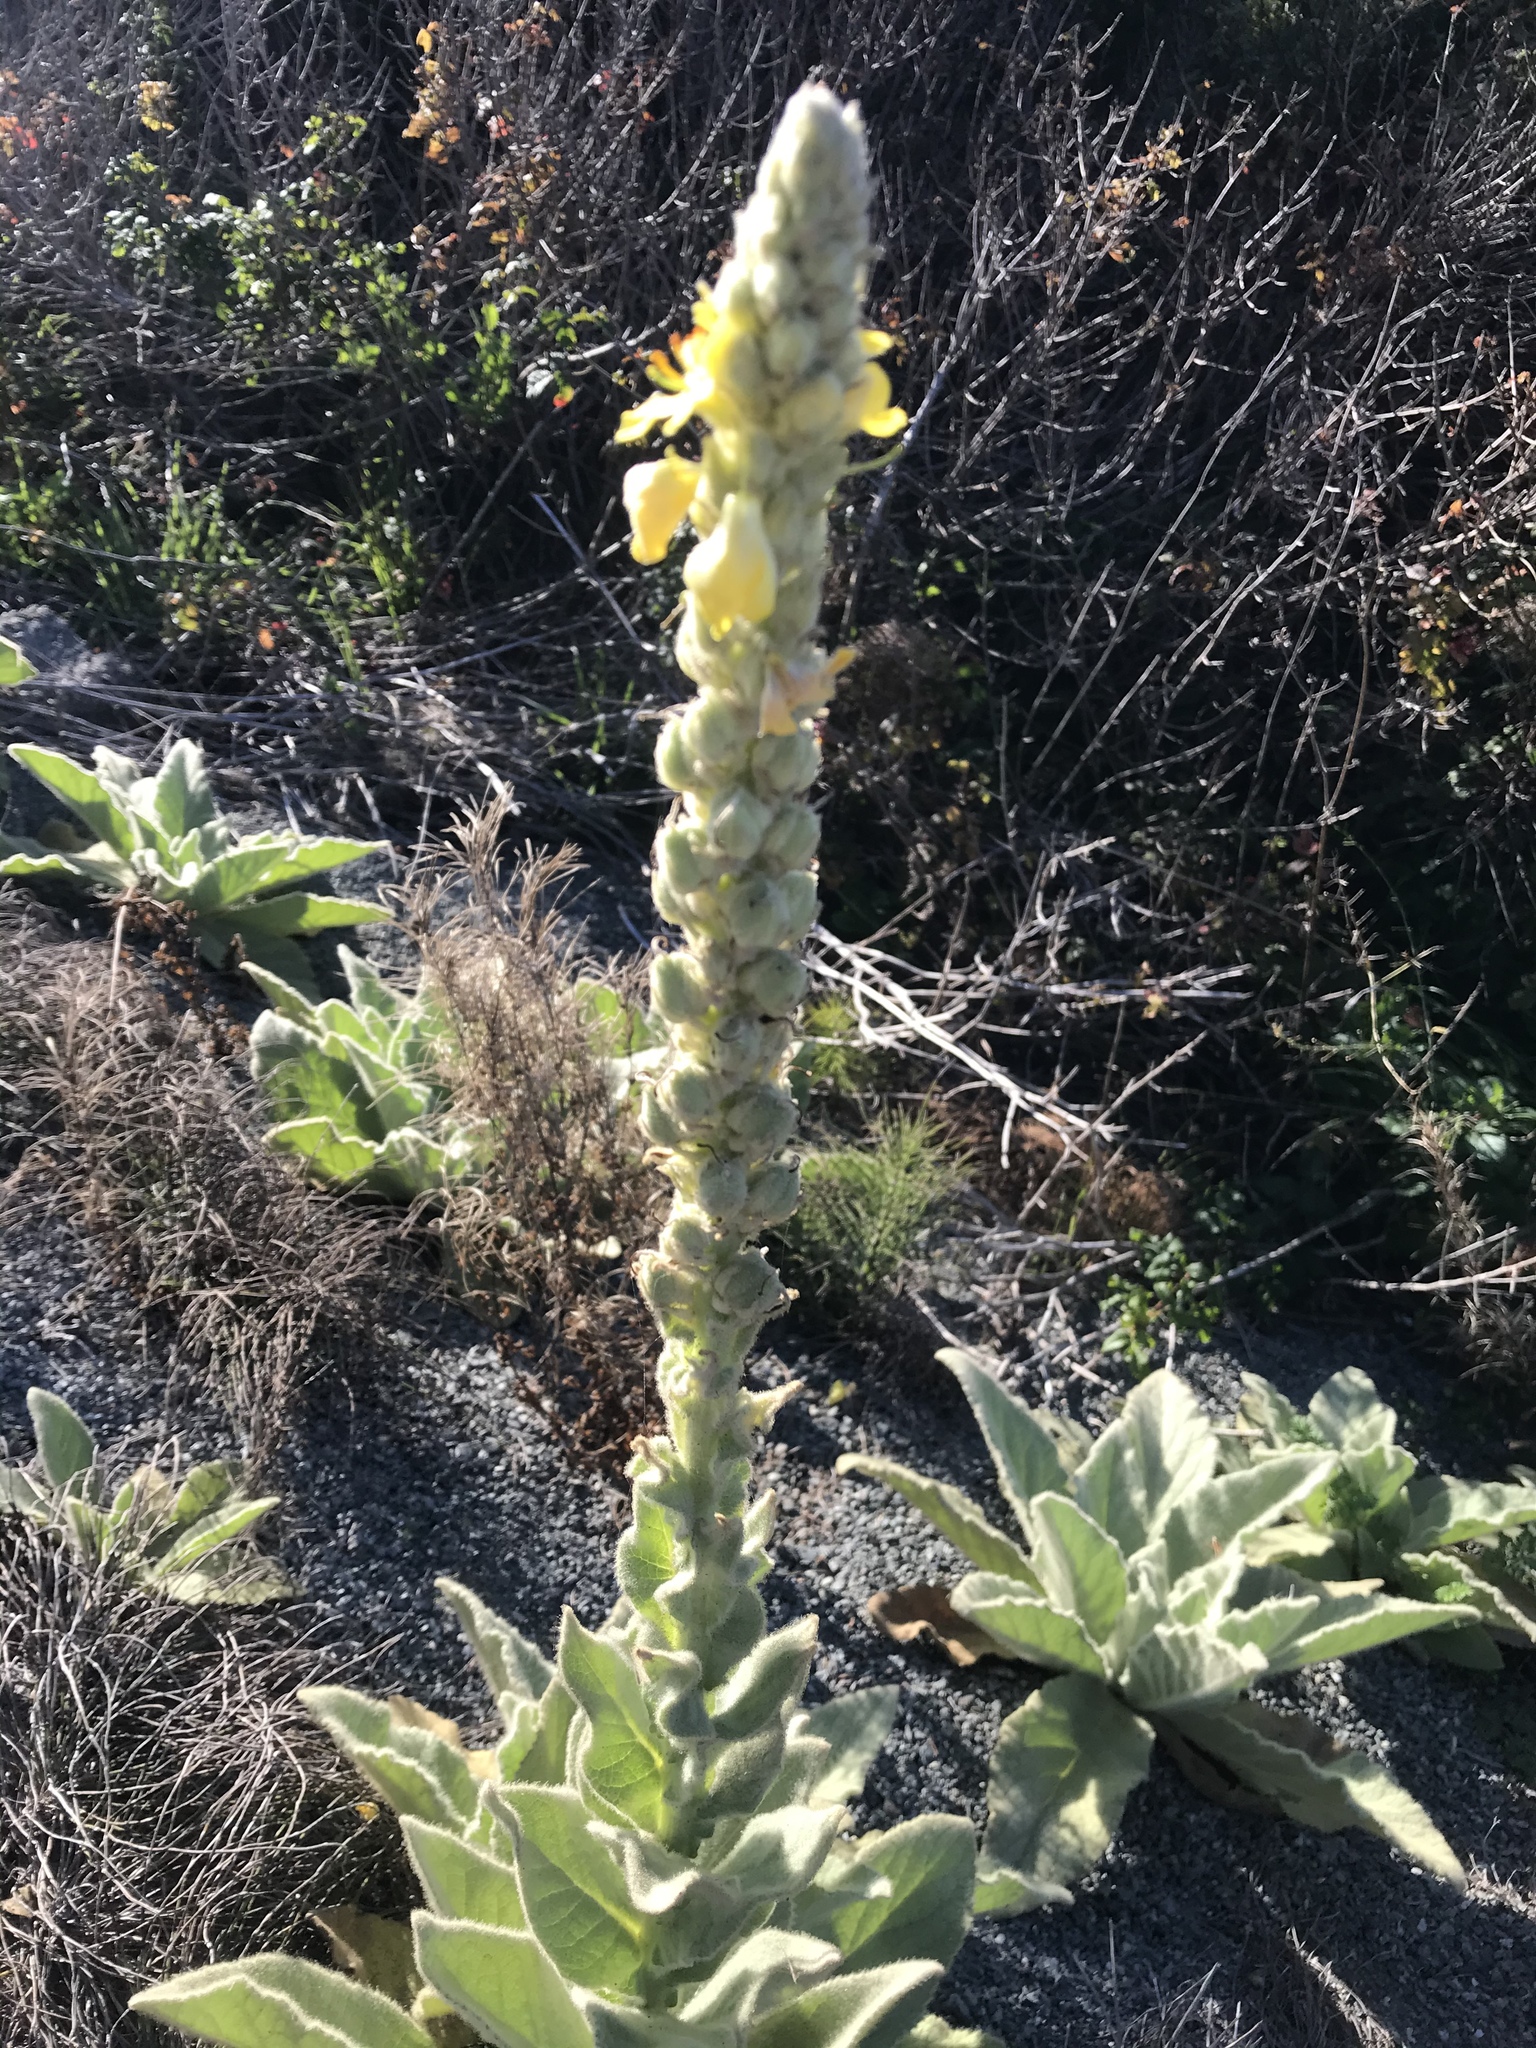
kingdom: Plantae
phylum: Tracheophyta
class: Magnoliopsida
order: Lamiales
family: Scrophulariaceae
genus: Verbascum
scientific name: Verbascum thapsus
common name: Common mullein
